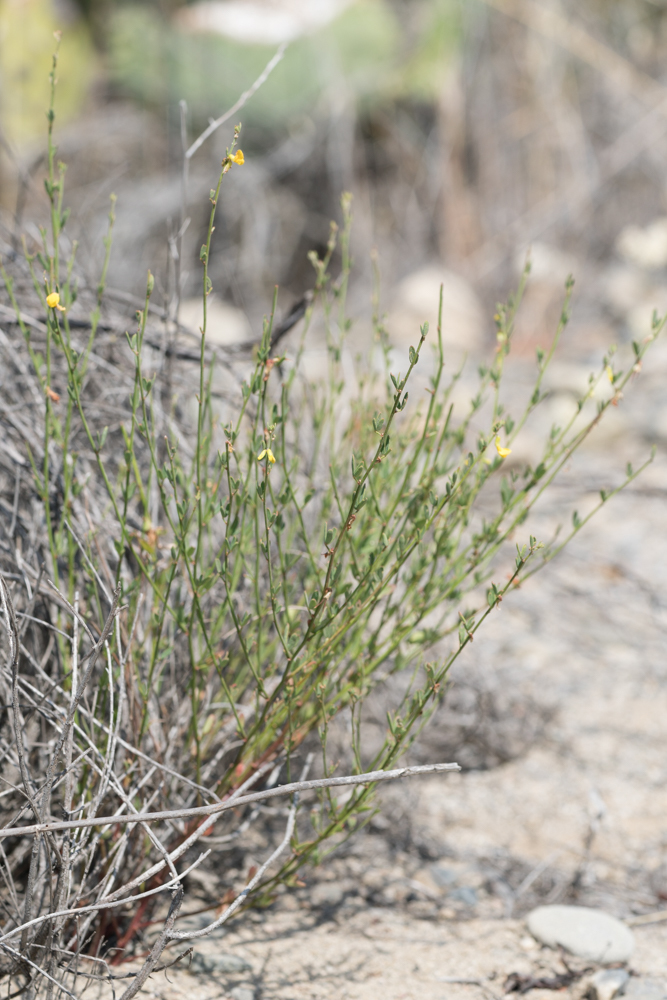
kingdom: Plantae
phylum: Tracheophyta
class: Magnoliopsida
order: Fabales
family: Fabaceae
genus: Acmispon
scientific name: Acmispon glaber
